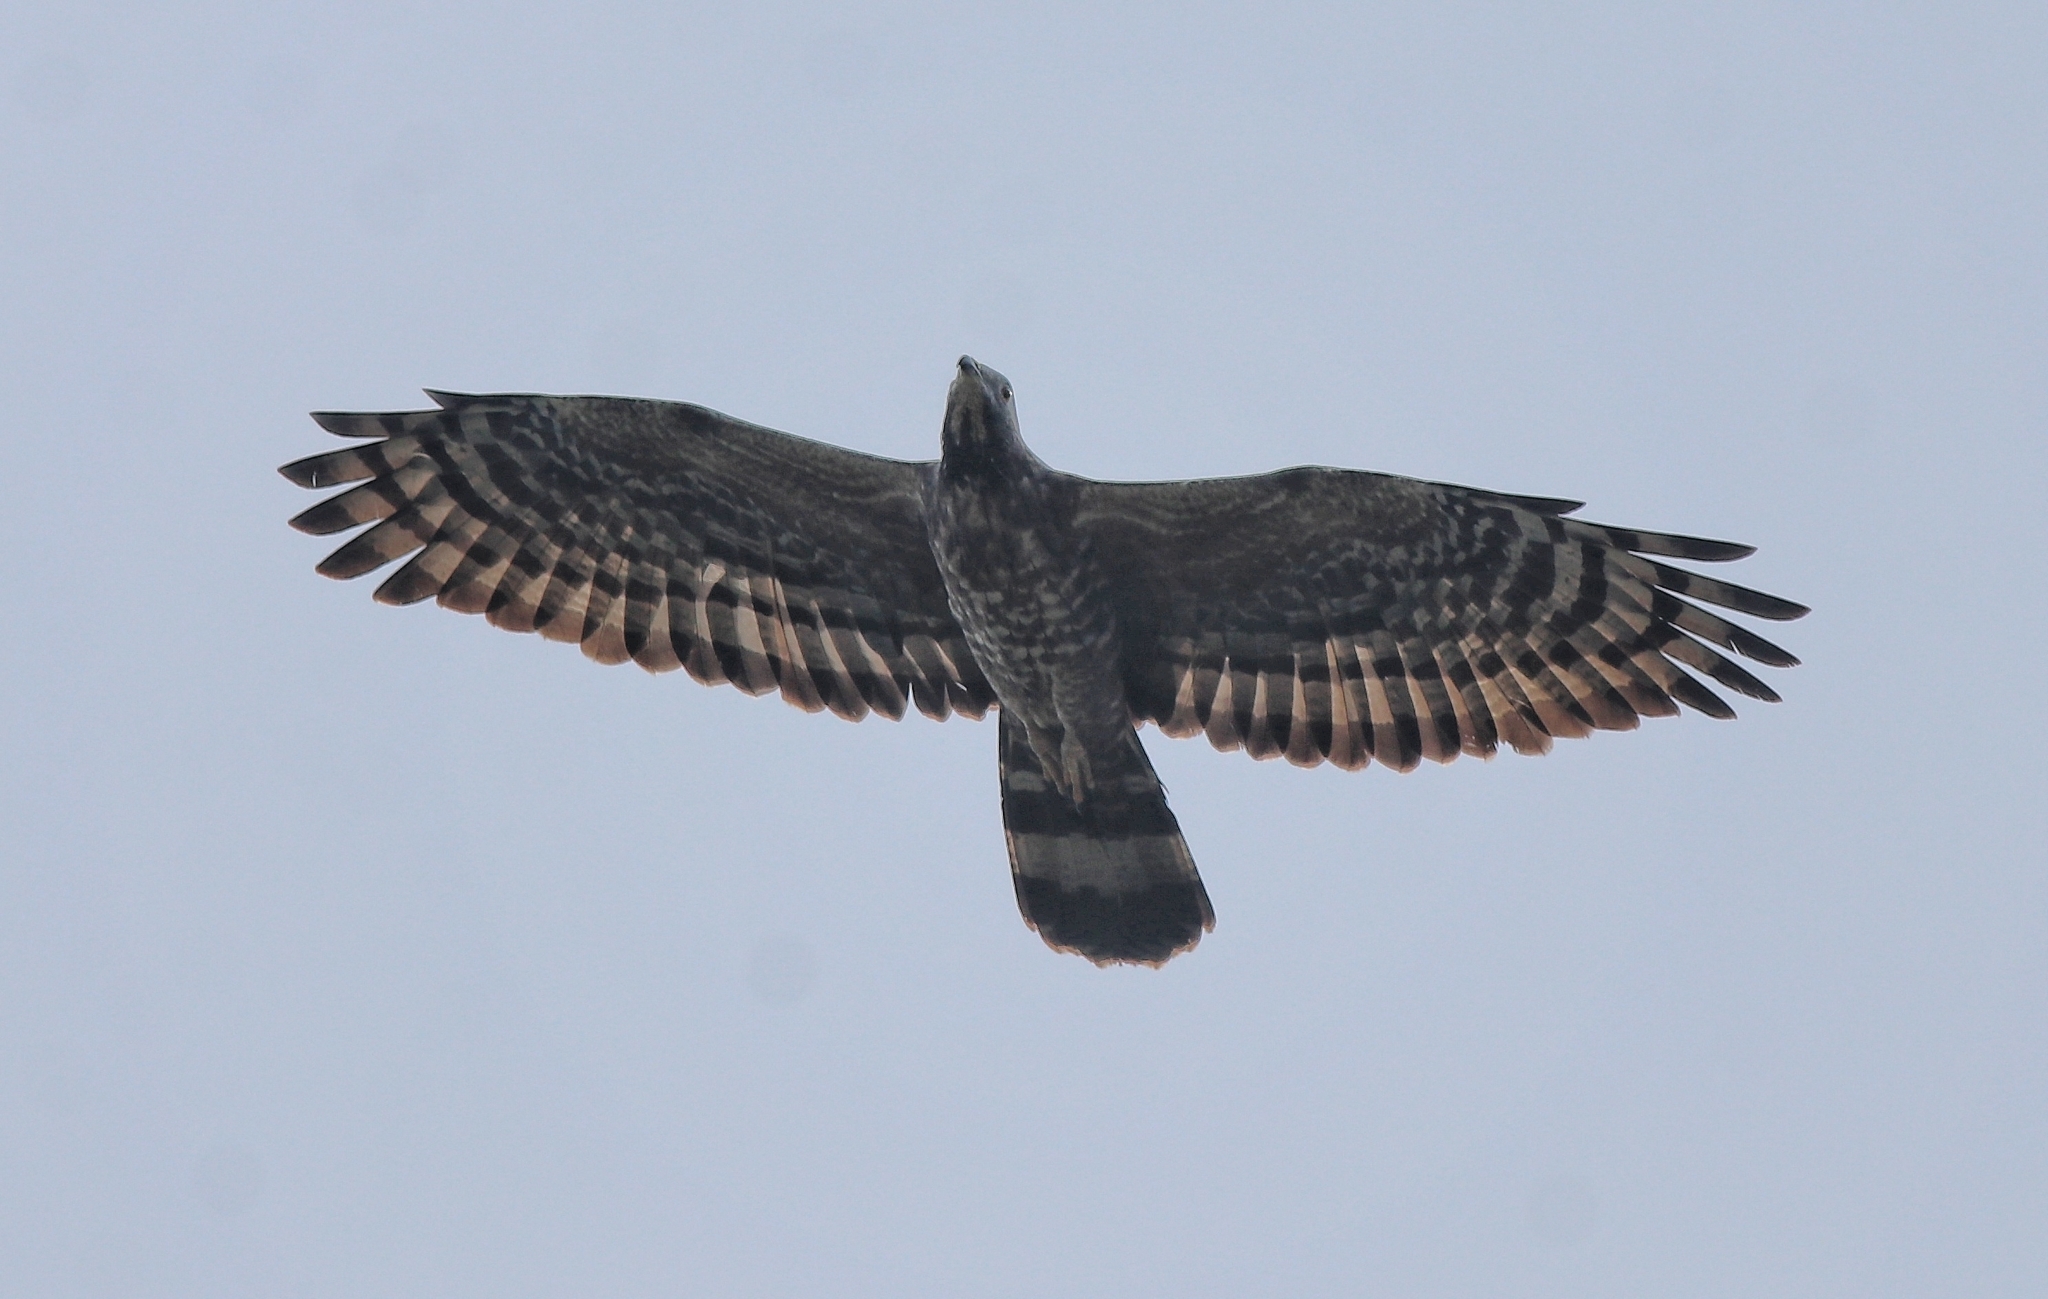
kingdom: Animalia
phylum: Chordata
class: Aves
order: Accipitriformes
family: Accipitridae
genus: Pernis
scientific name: Pernis ptilorhynchus
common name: Crested honey buzzard
